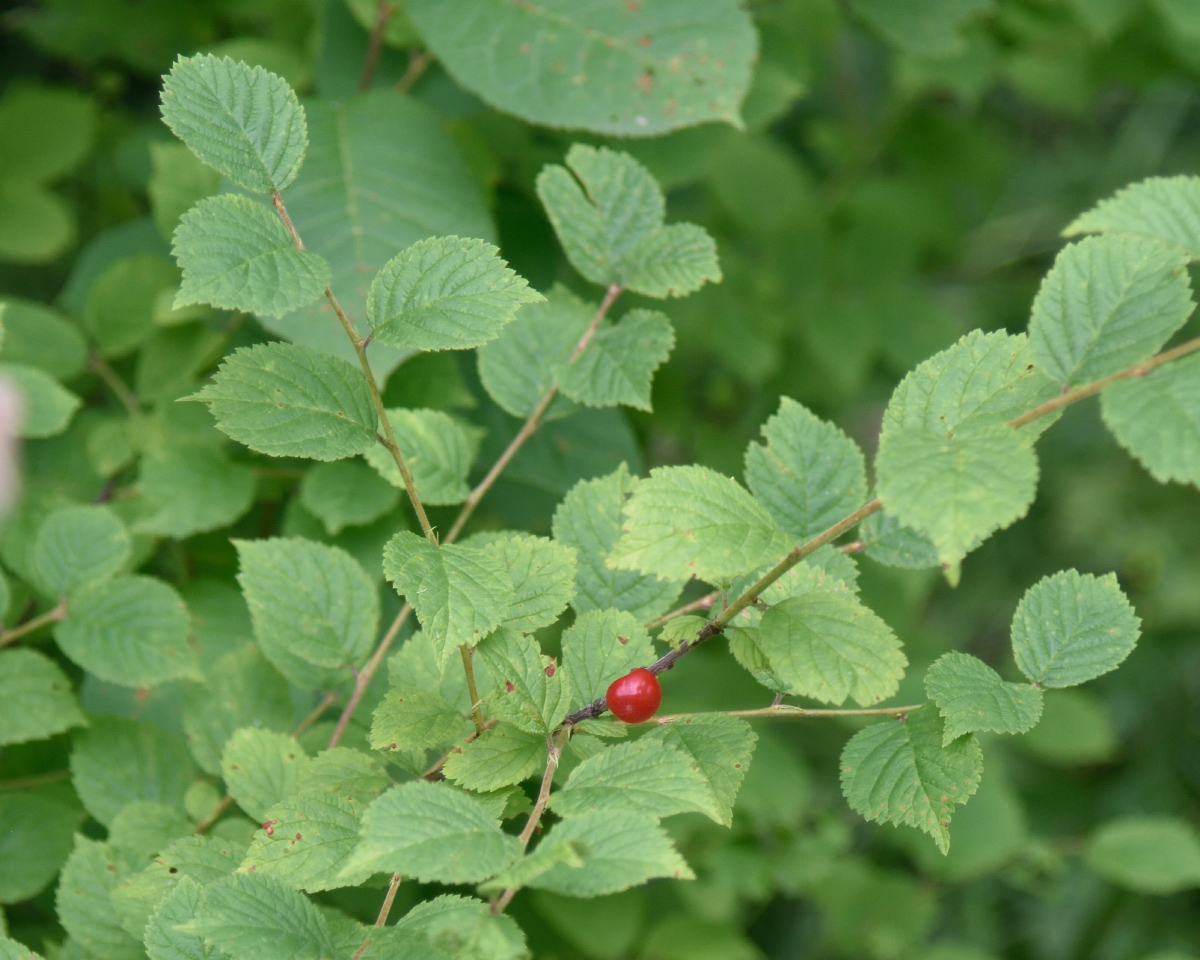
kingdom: Plantae
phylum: Tracheophyta
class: Magnoliopsida
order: Rosales
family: Rosaceae
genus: Prunus
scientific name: Prunus tomentosa
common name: Nanking cherry
